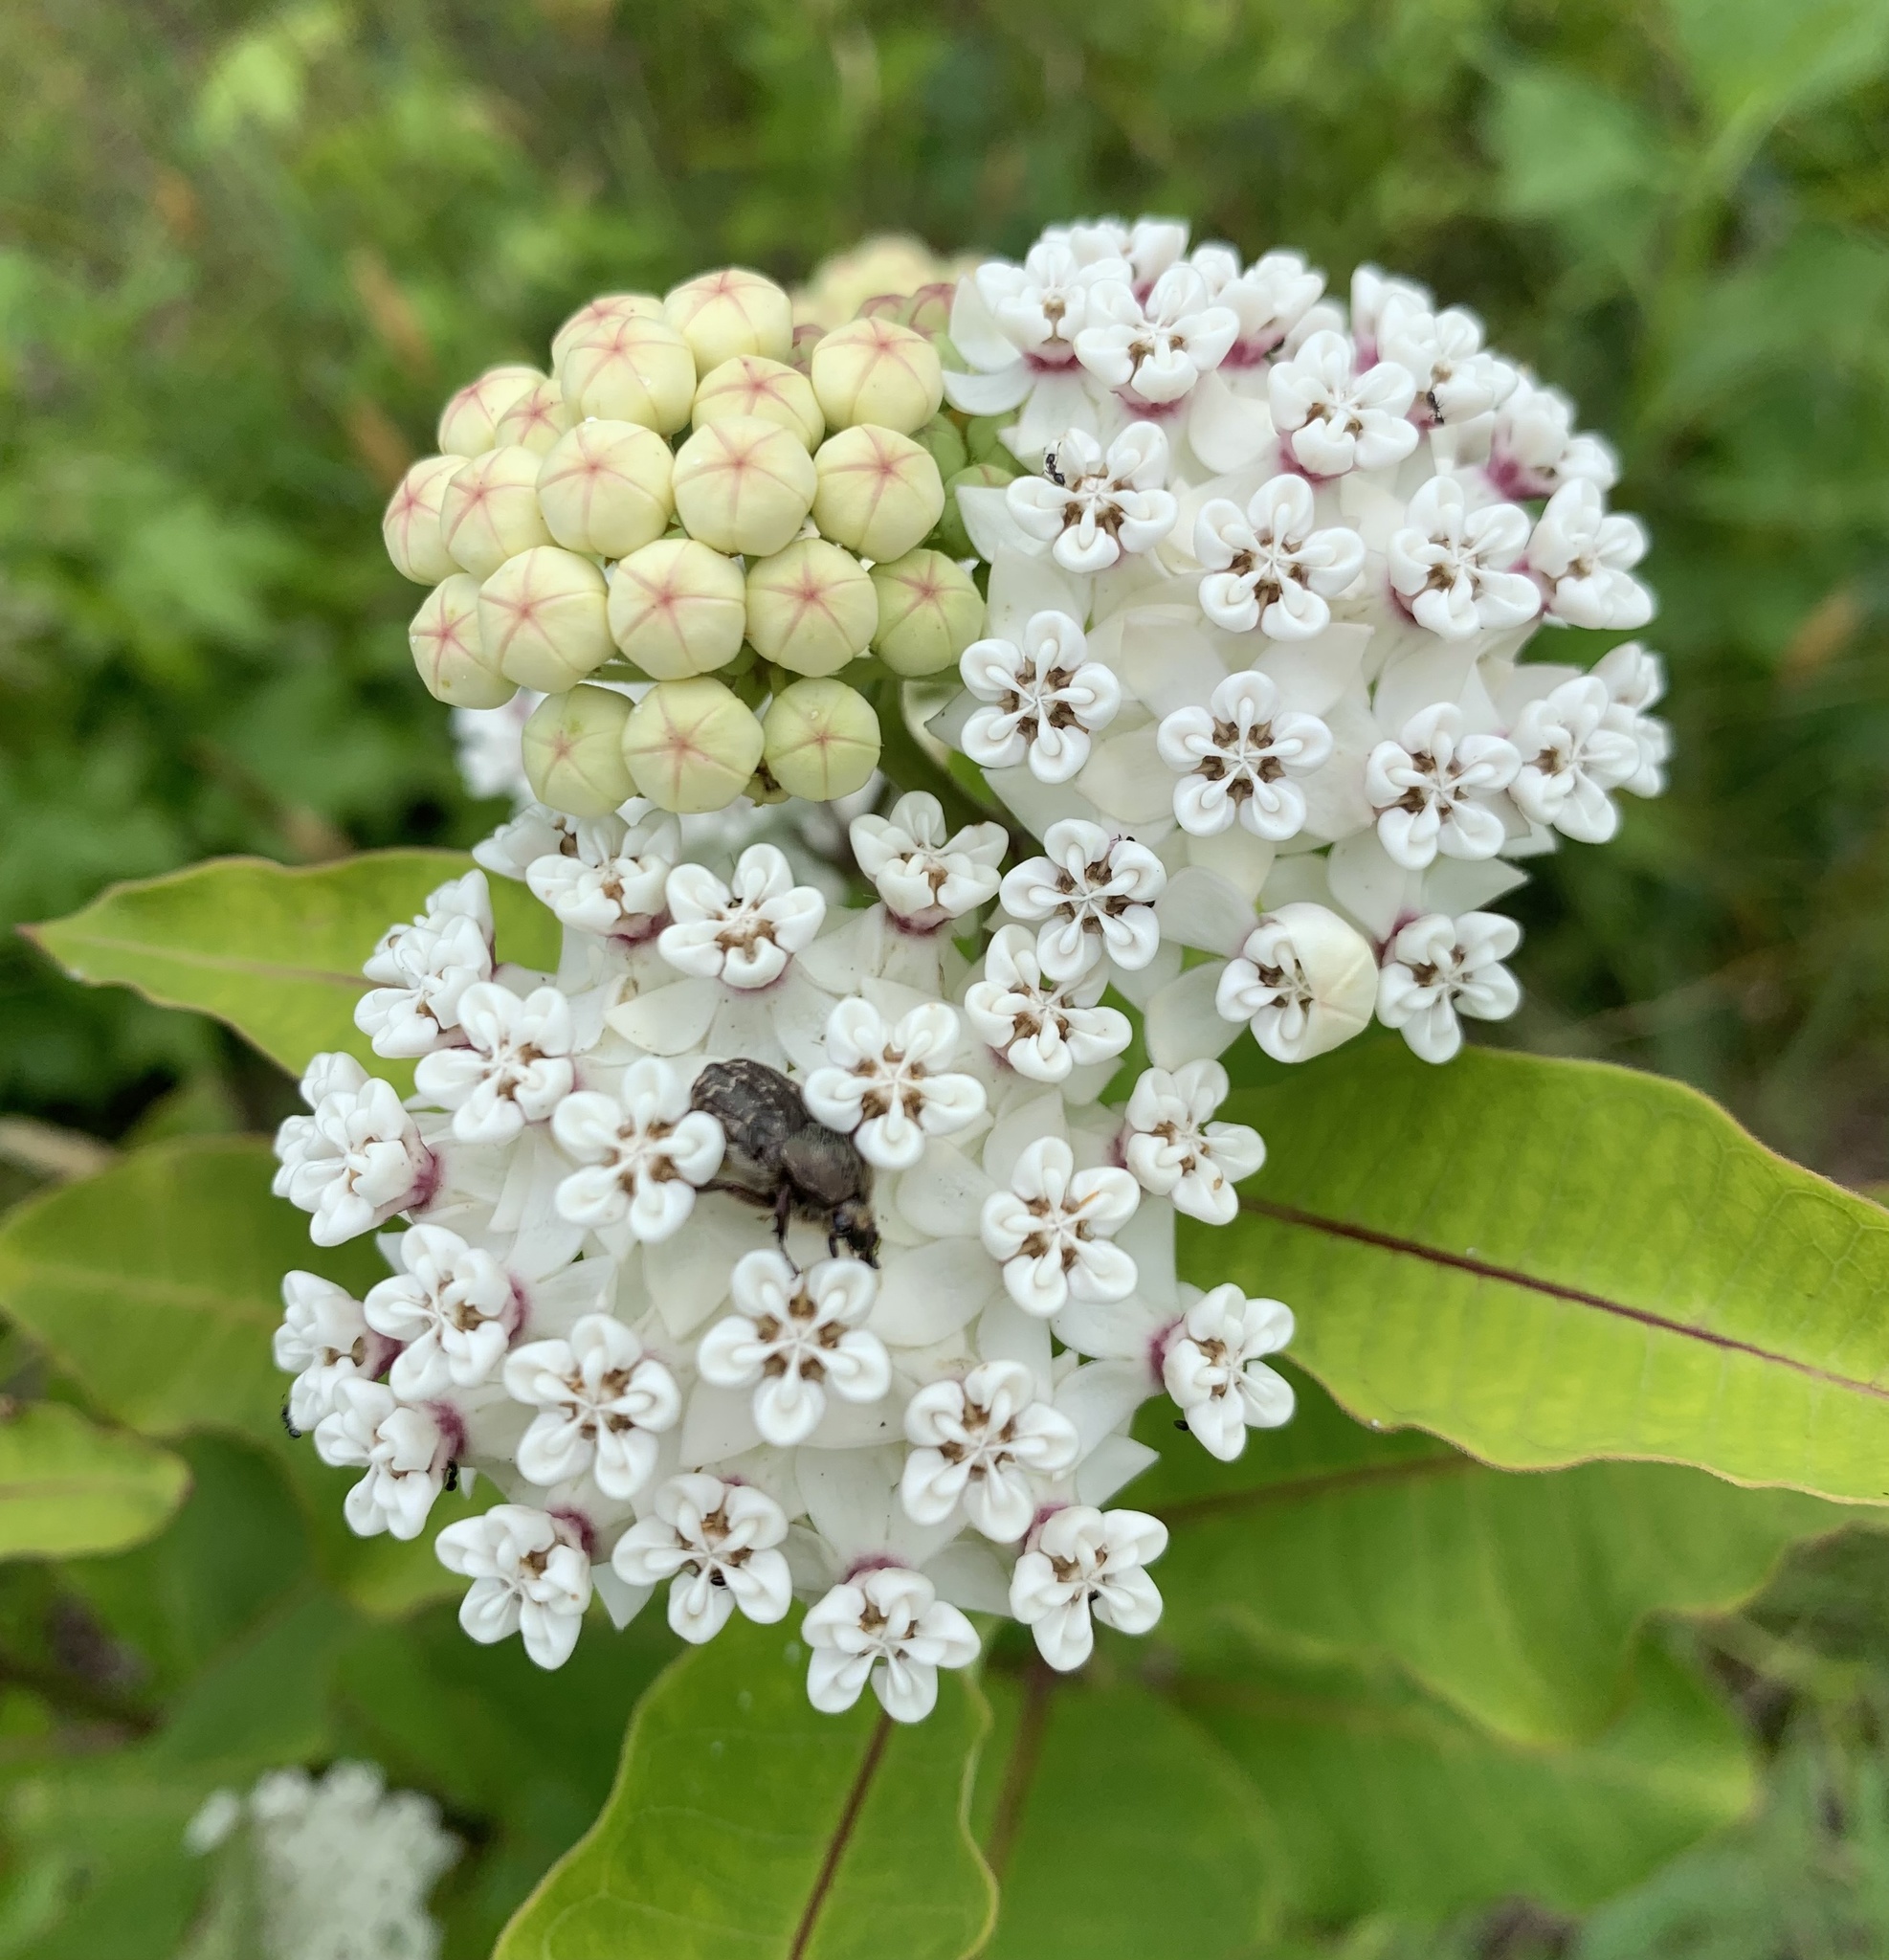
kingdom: Plantae
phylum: Tracheophyta
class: Magnoliopsida
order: Gentianales
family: Apocynaceae
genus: Asclepias
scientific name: Asclepias variegata
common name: Variegated milkweed
